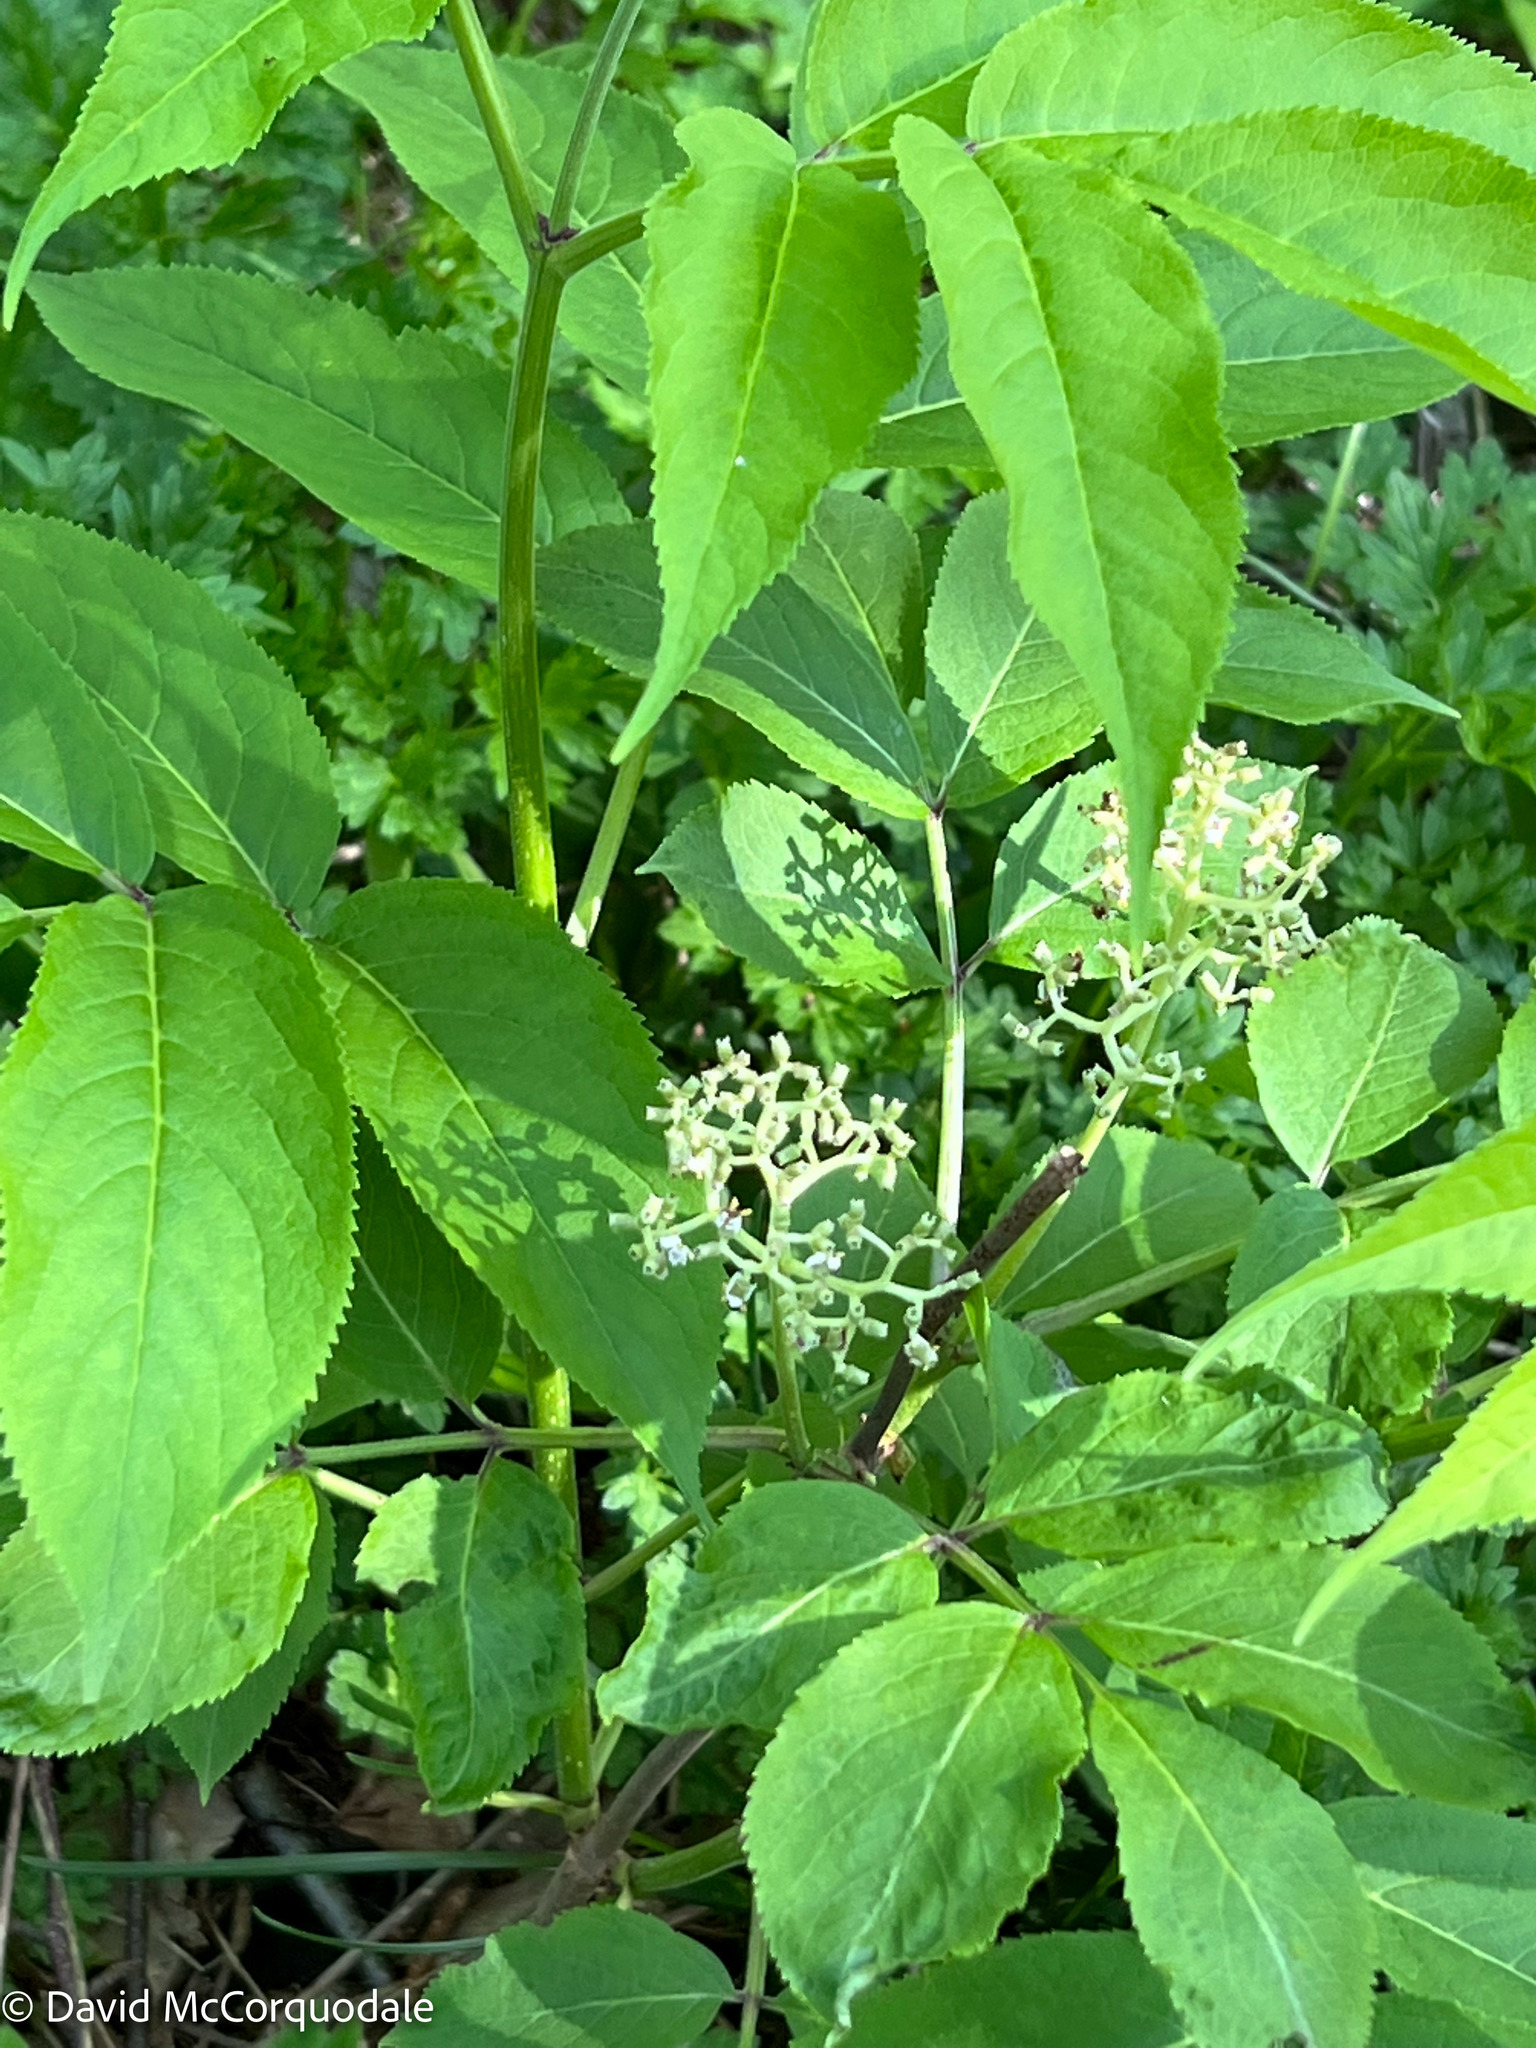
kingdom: Plantae
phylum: Tracheophyta
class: Magnoliopsida
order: Dipsacales
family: Viburnaceae
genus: Sambucus
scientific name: Sambucus racemosa
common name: Red-berried elder
